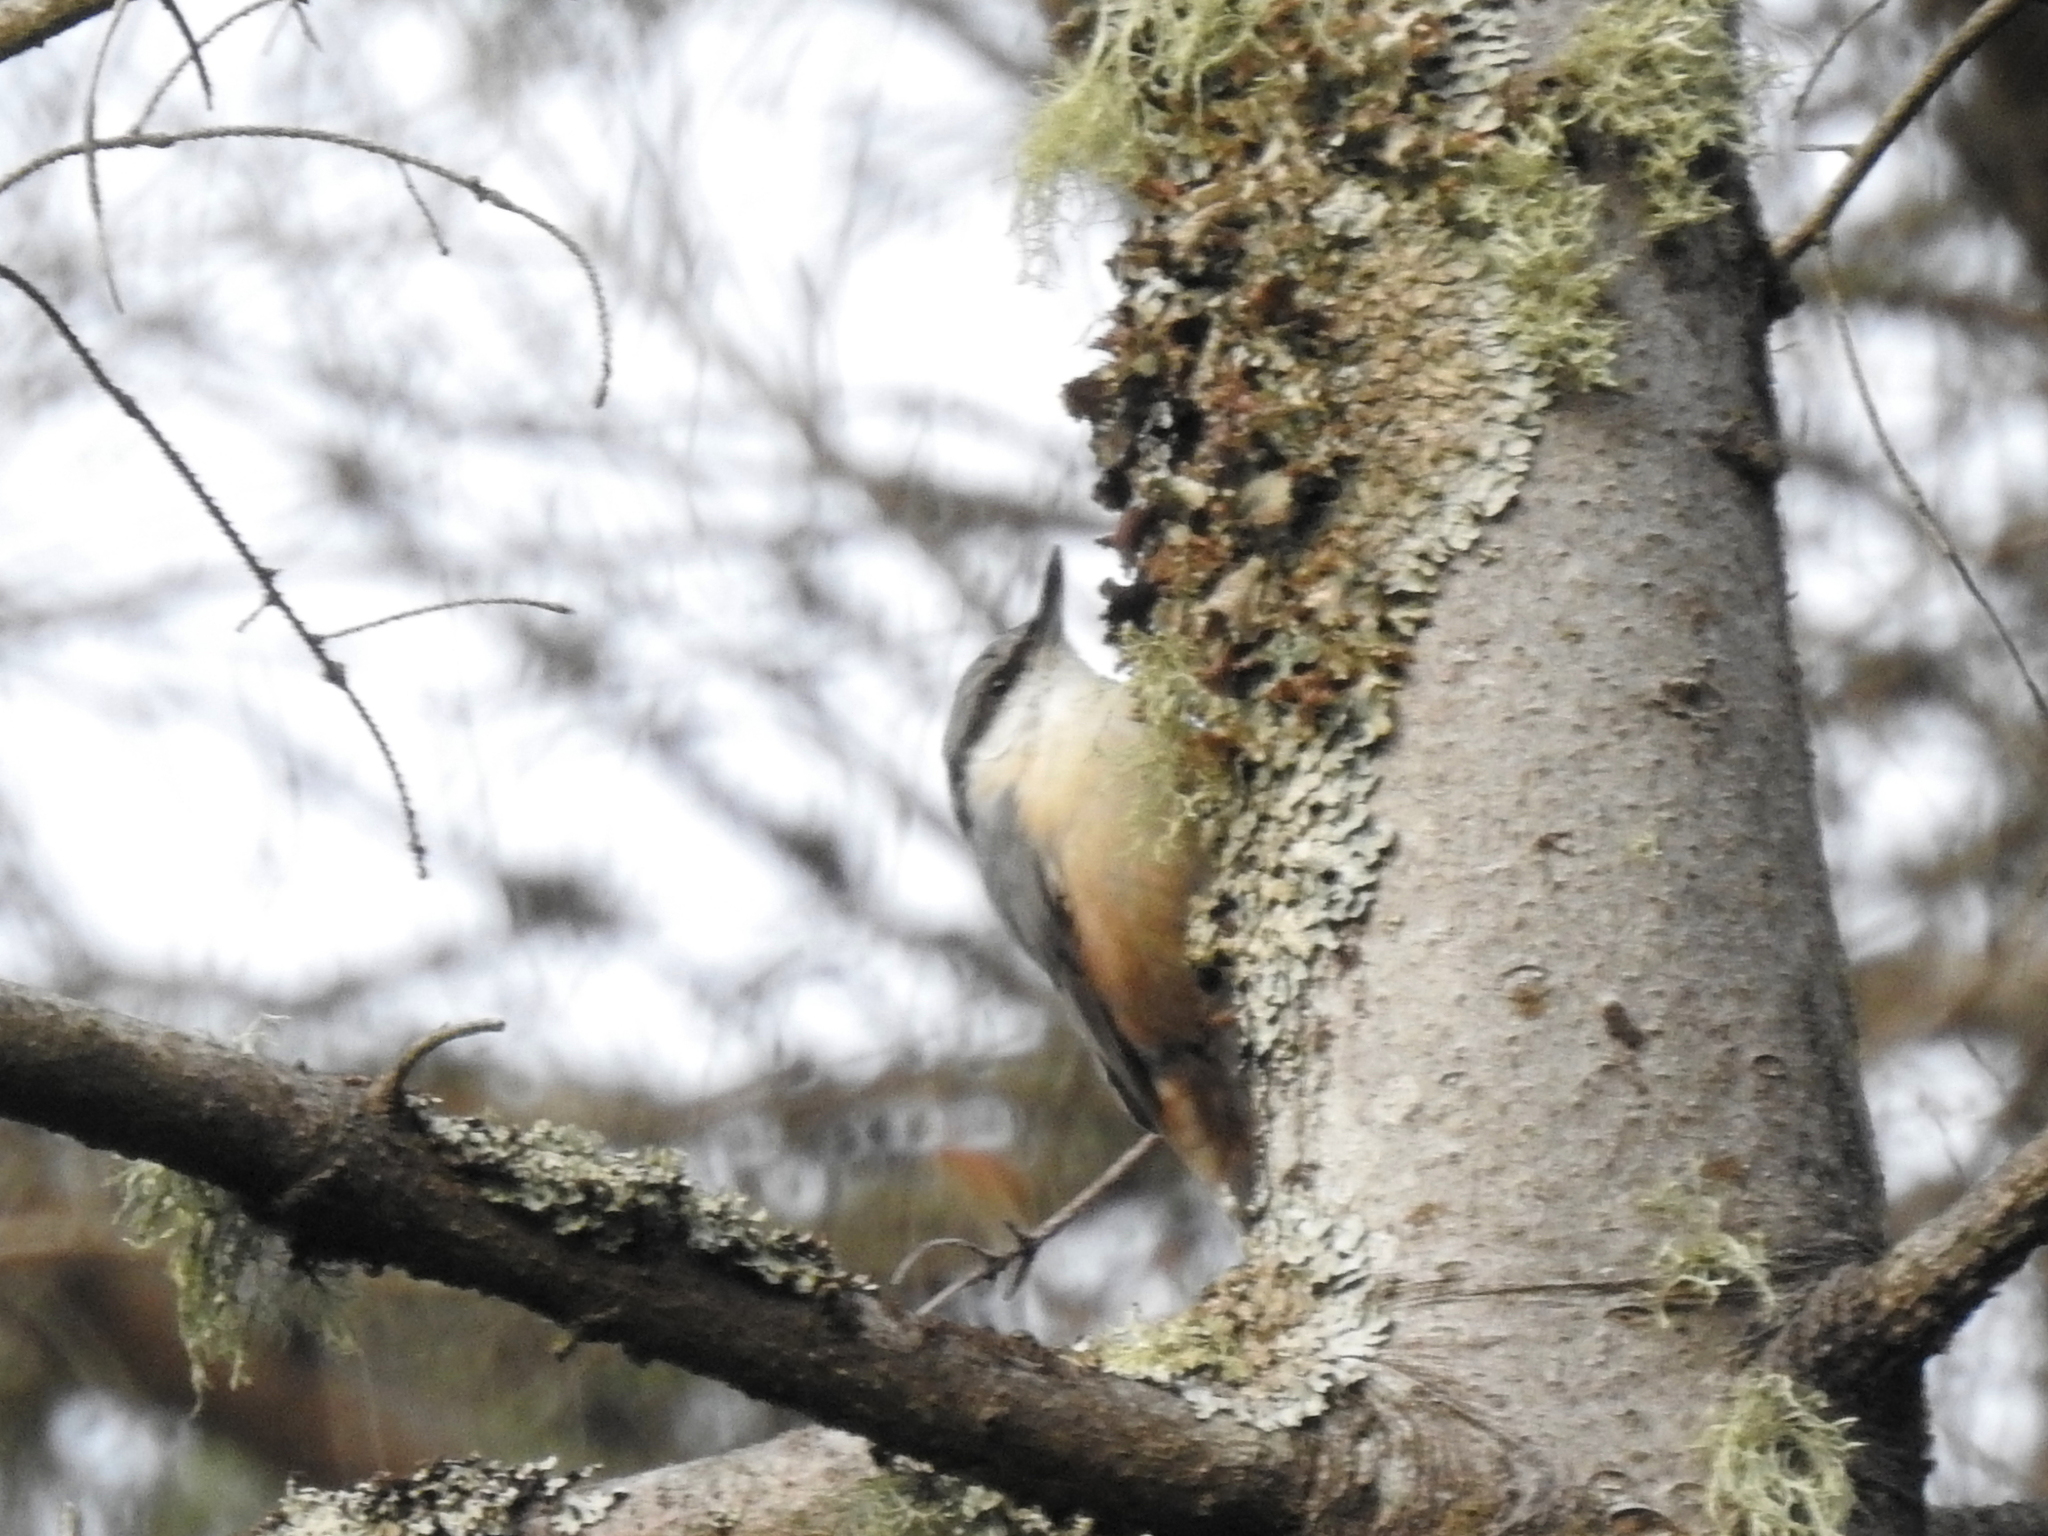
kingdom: Animalia
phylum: Chordata
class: Aves
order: Passeriformes
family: Sittidae
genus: Sitta
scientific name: Sitta europaea
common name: Eurasian nuthatch
